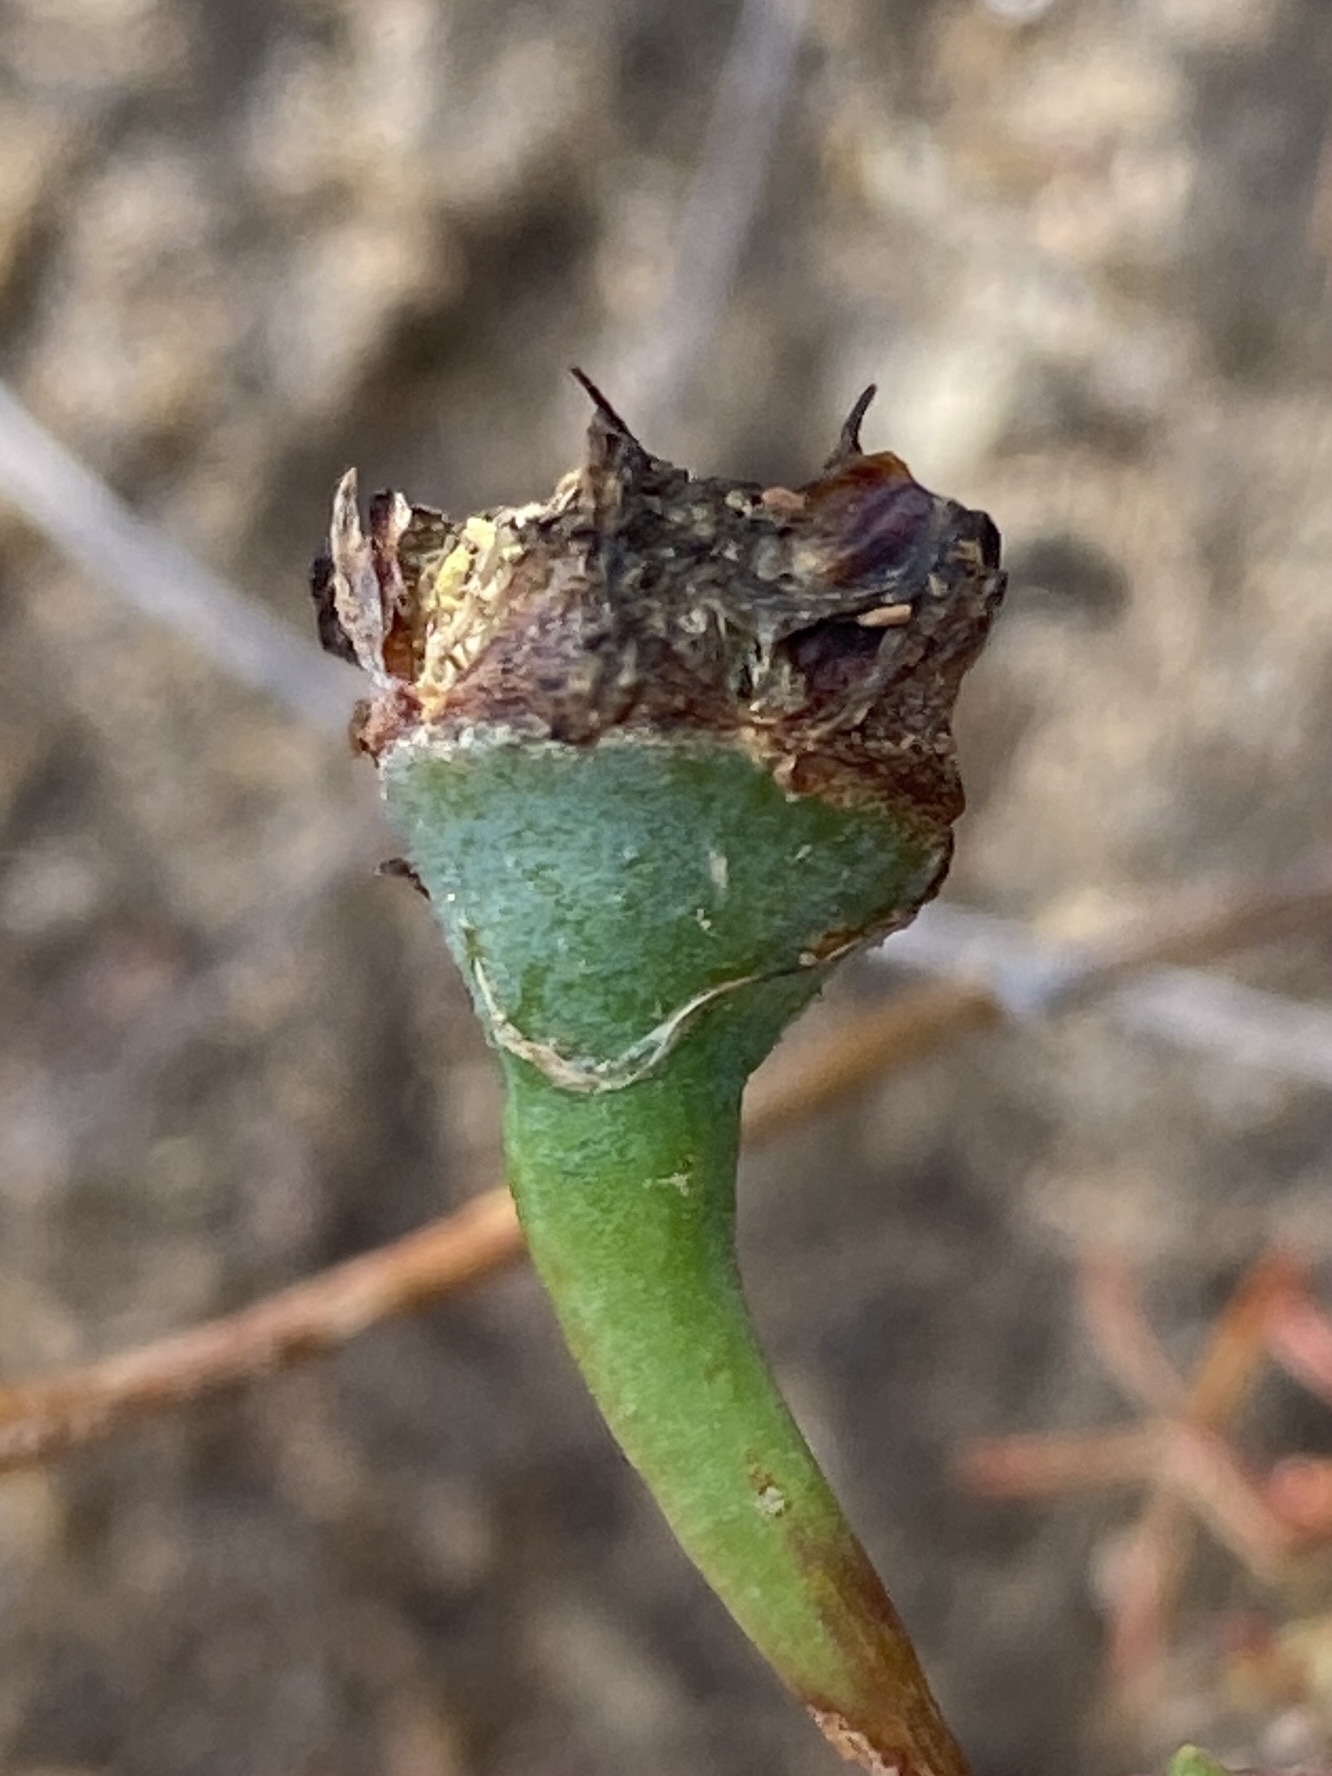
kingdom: Plantae
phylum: Tracheophyta
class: Magnoliopsida
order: Caryophyllales
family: Aizoaceae
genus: Lampranthus
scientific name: Lampranthus elegans
